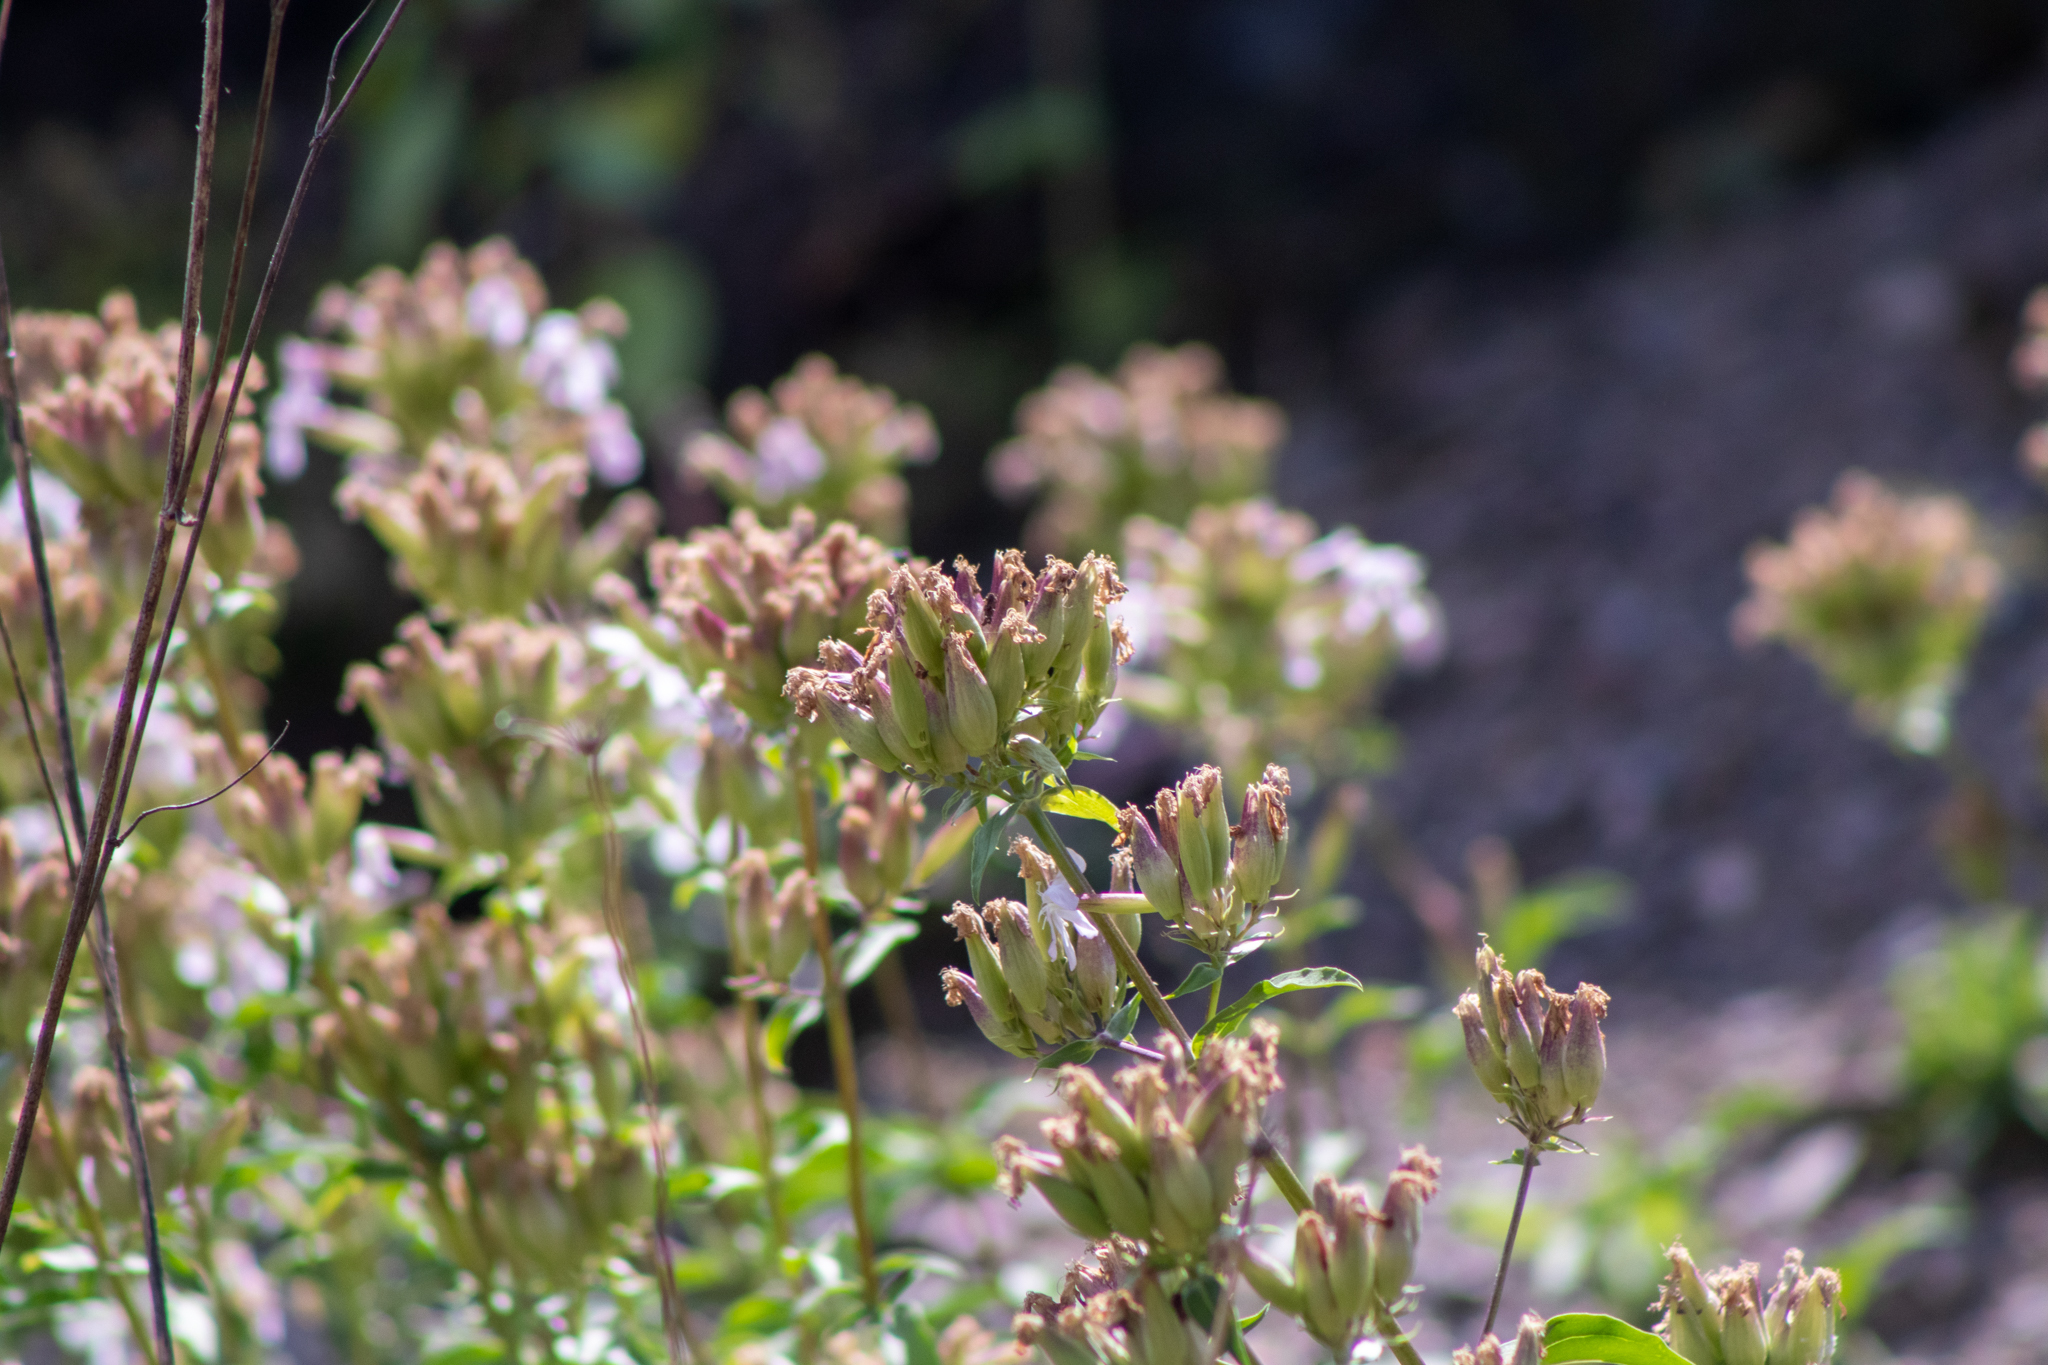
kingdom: Plantae
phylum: Tracheophyta
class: Magnoliopsida
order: Caryophyllales
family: Caryophyllaceae
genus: Saponaria
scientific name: Saponaria officinalis
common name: Soapwort
